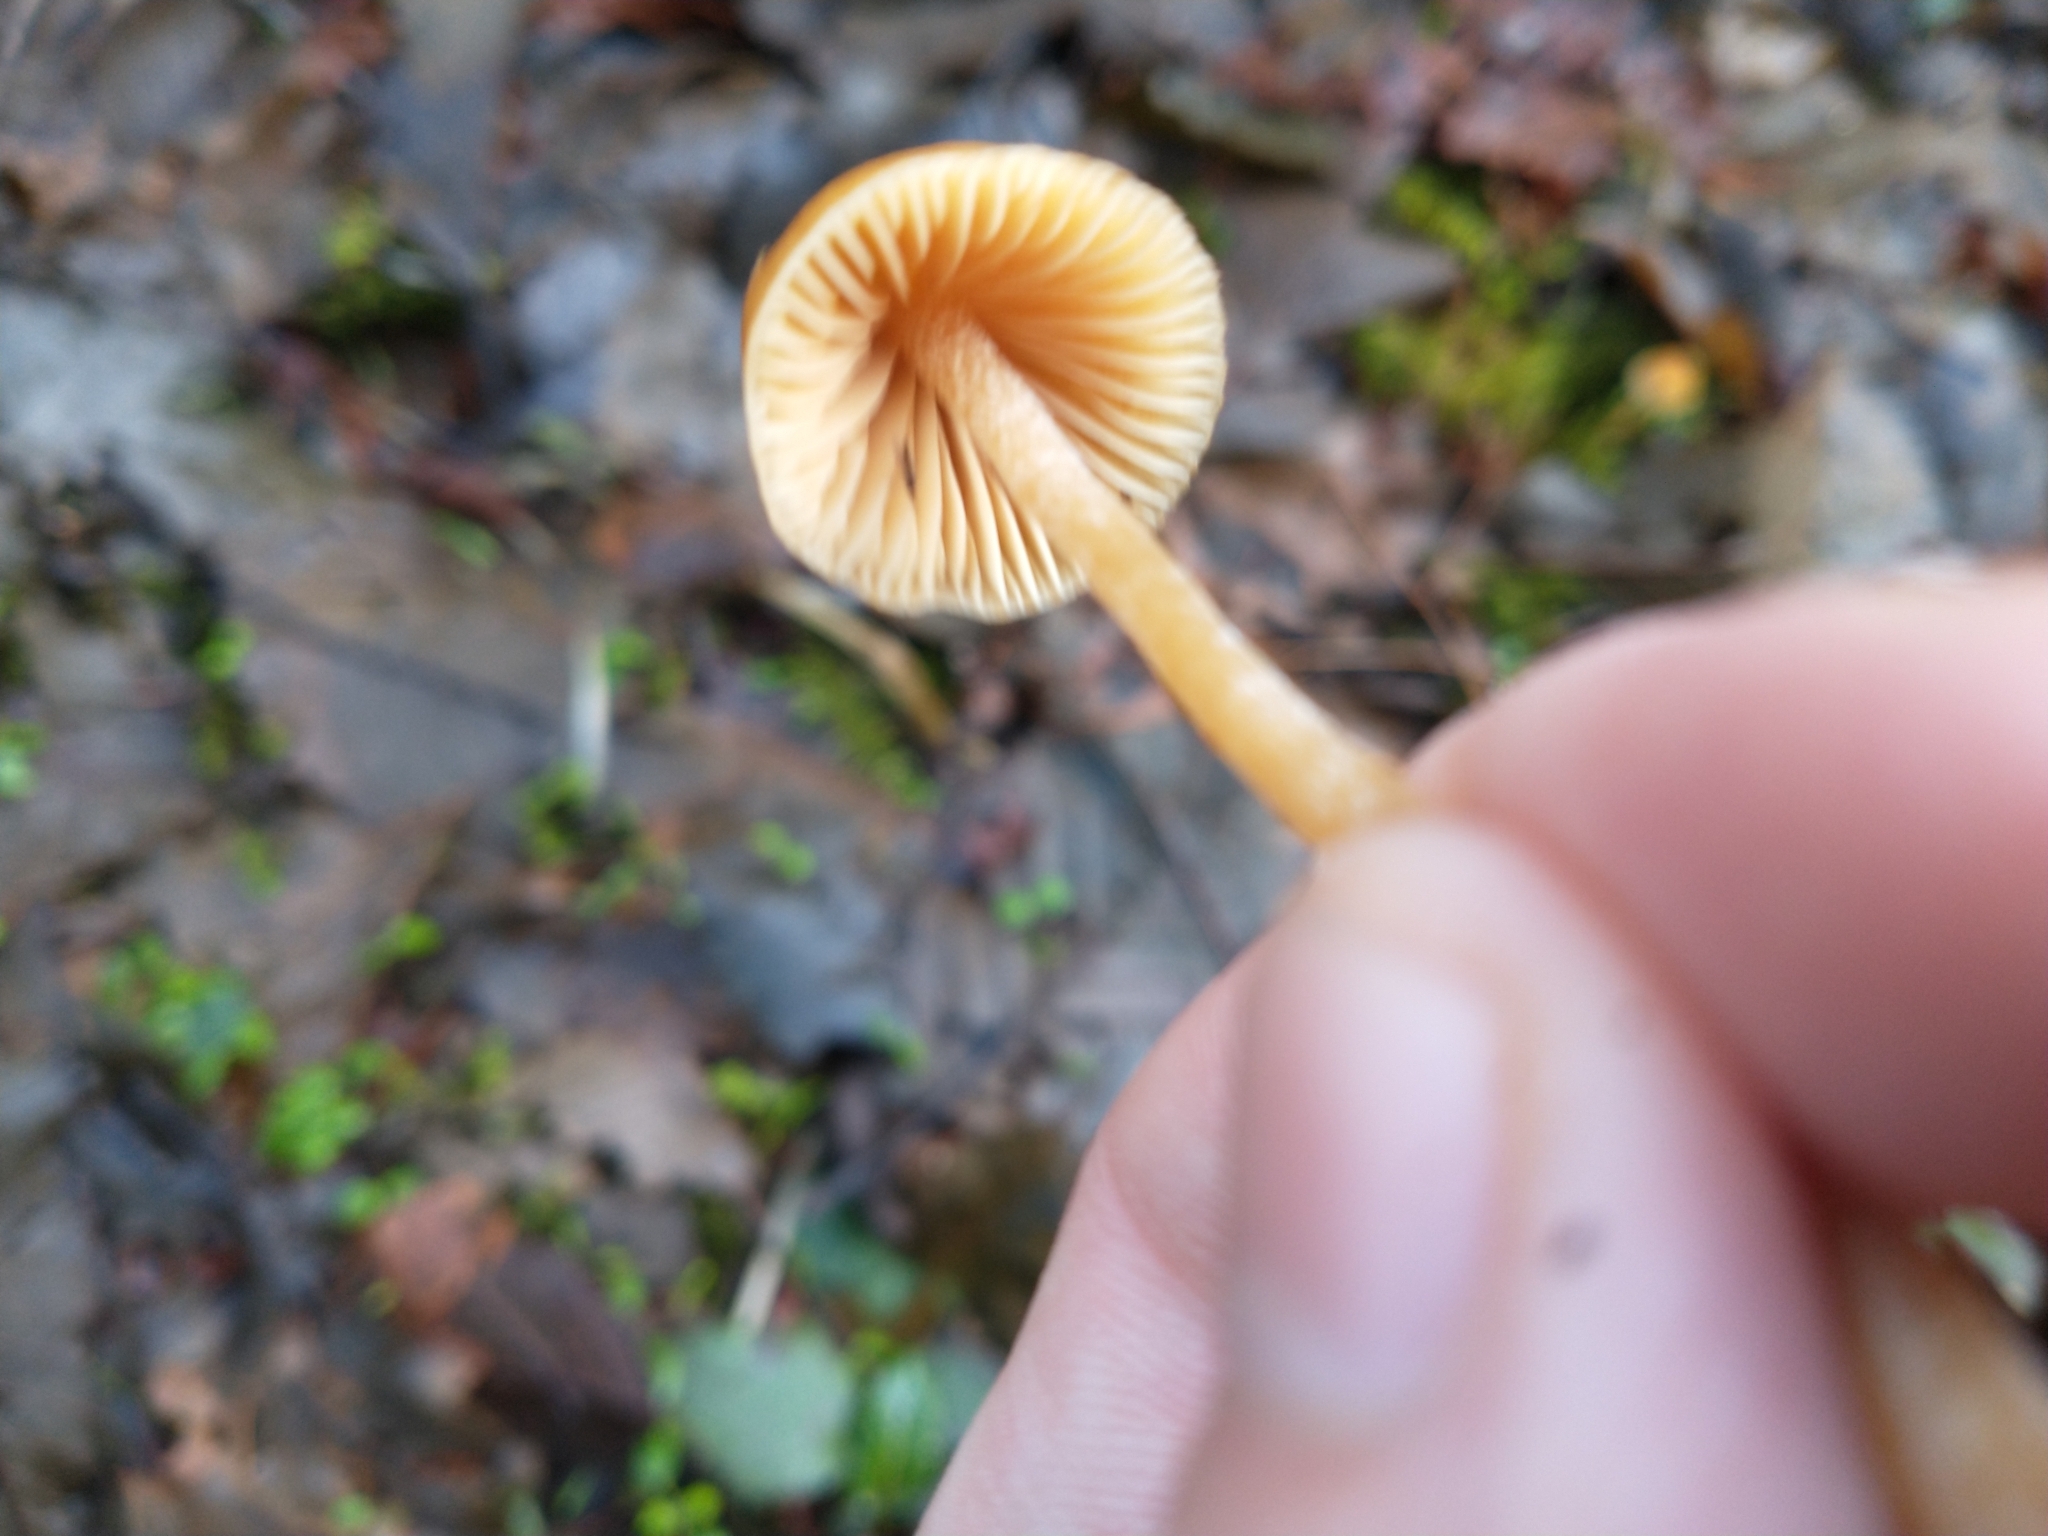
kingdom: Fungi
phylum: Basidiomycota
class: Agaricomycetes
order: Agaricales
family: Hymenogastraceae
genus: Galerina
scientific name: Galerina semilanceata
